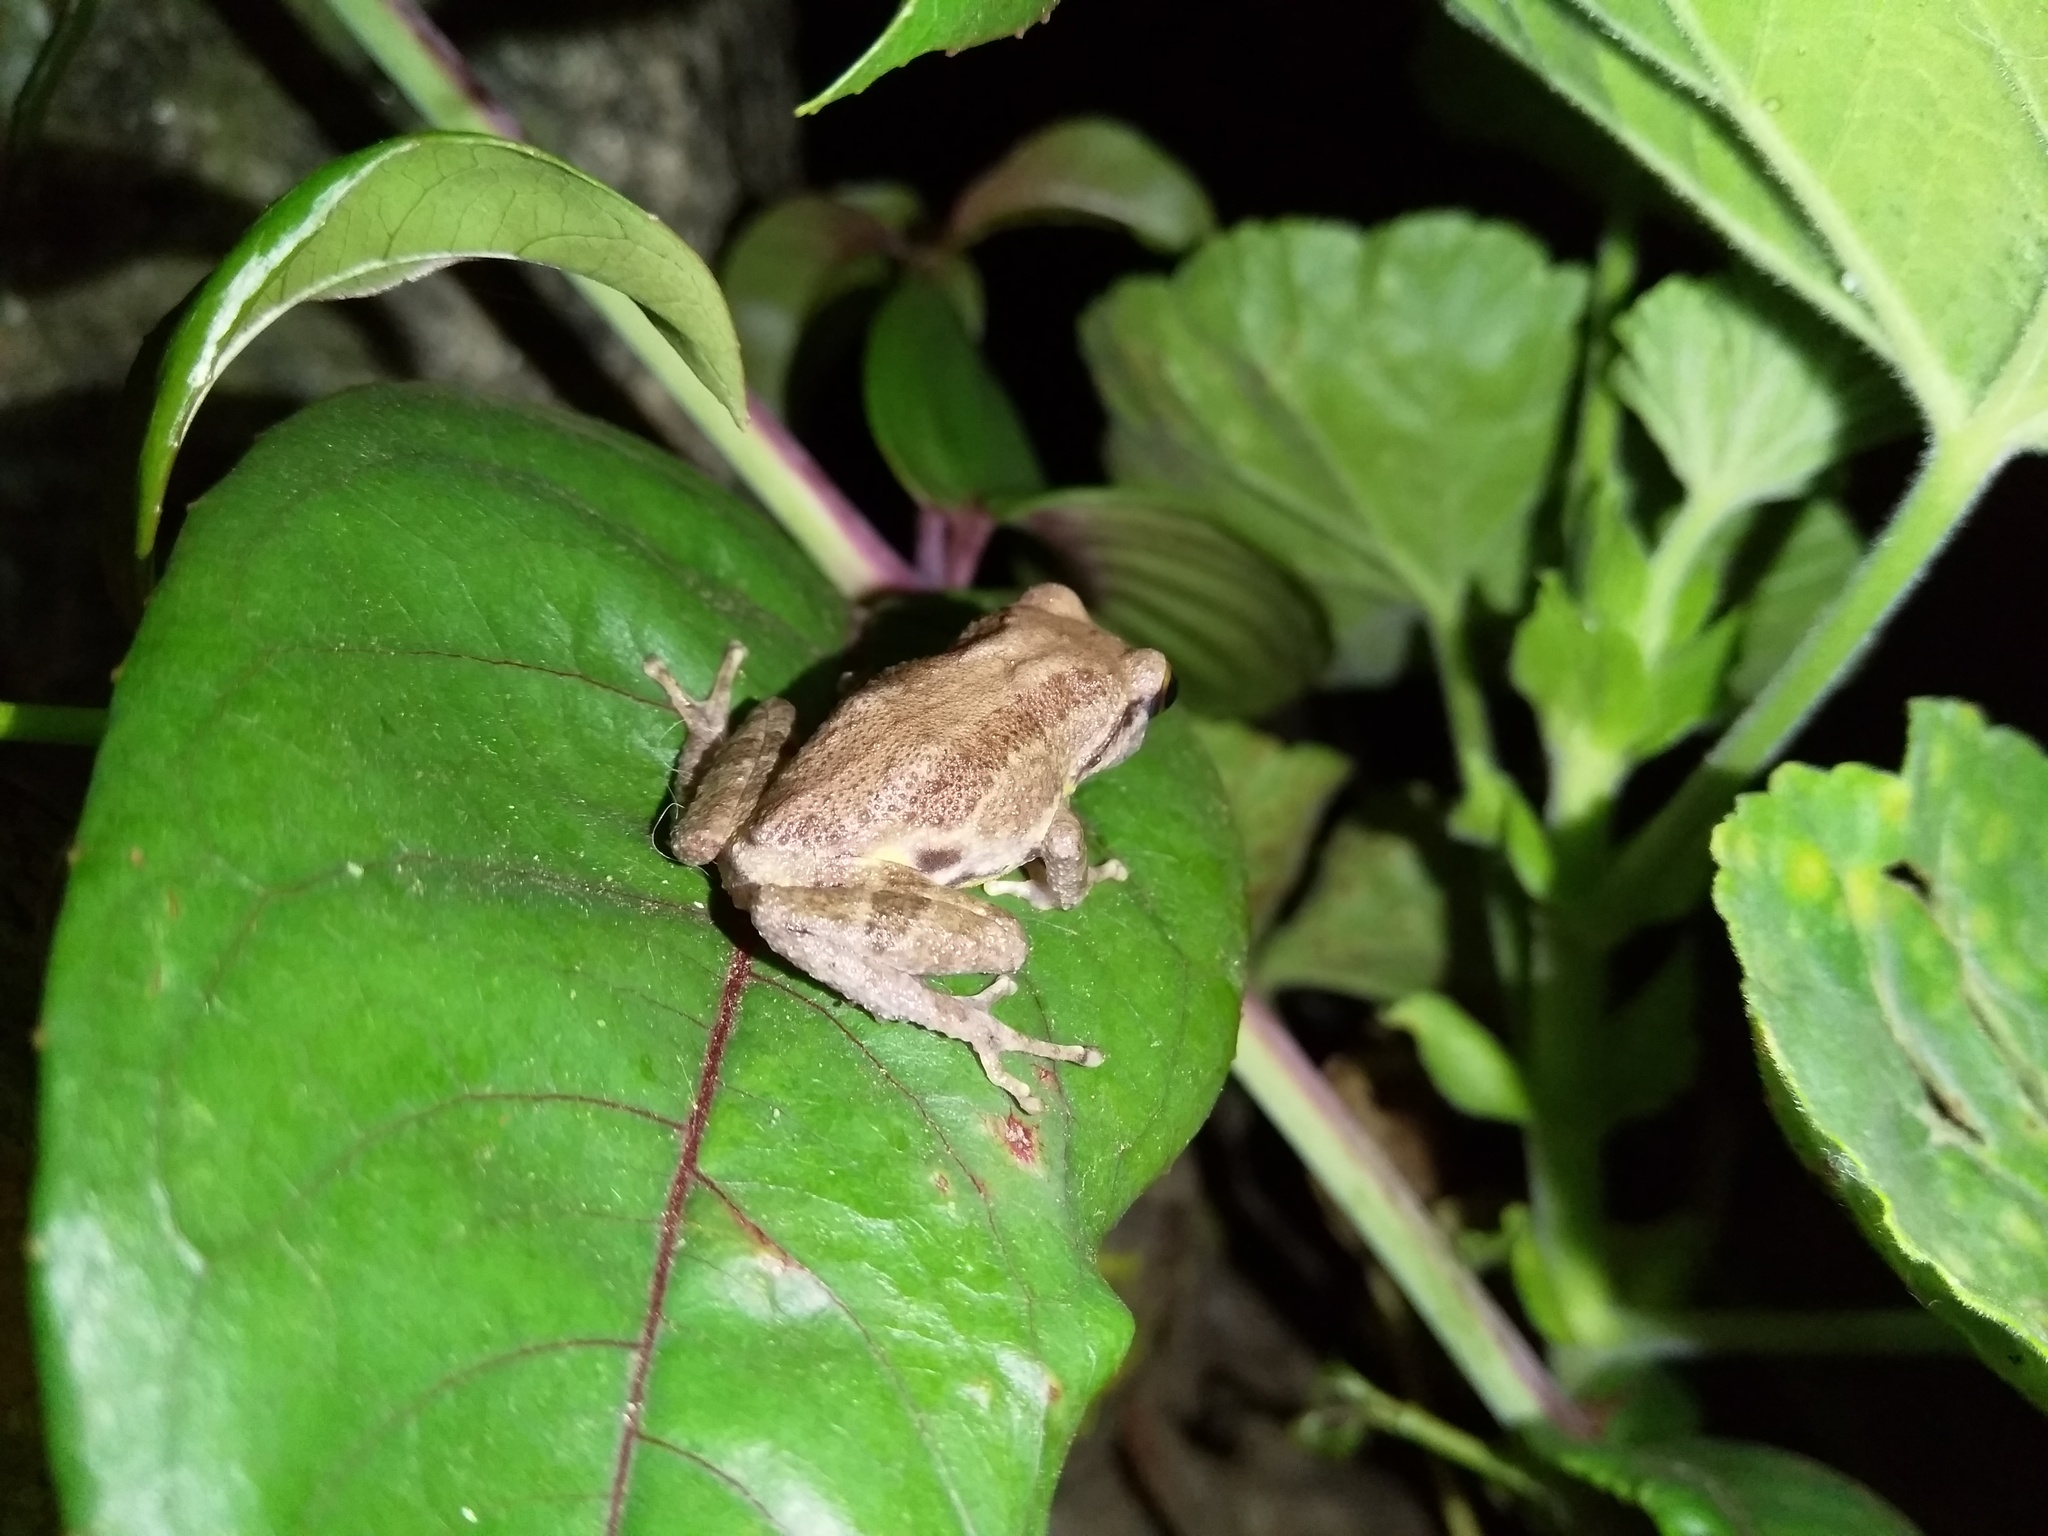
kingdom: Animalia
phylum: Chordata
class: Amphibia
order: Anura
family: Rhacophoridae
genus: Raorchestes
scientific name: Raorchestes dubois
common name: Koadaikanal bush frog
